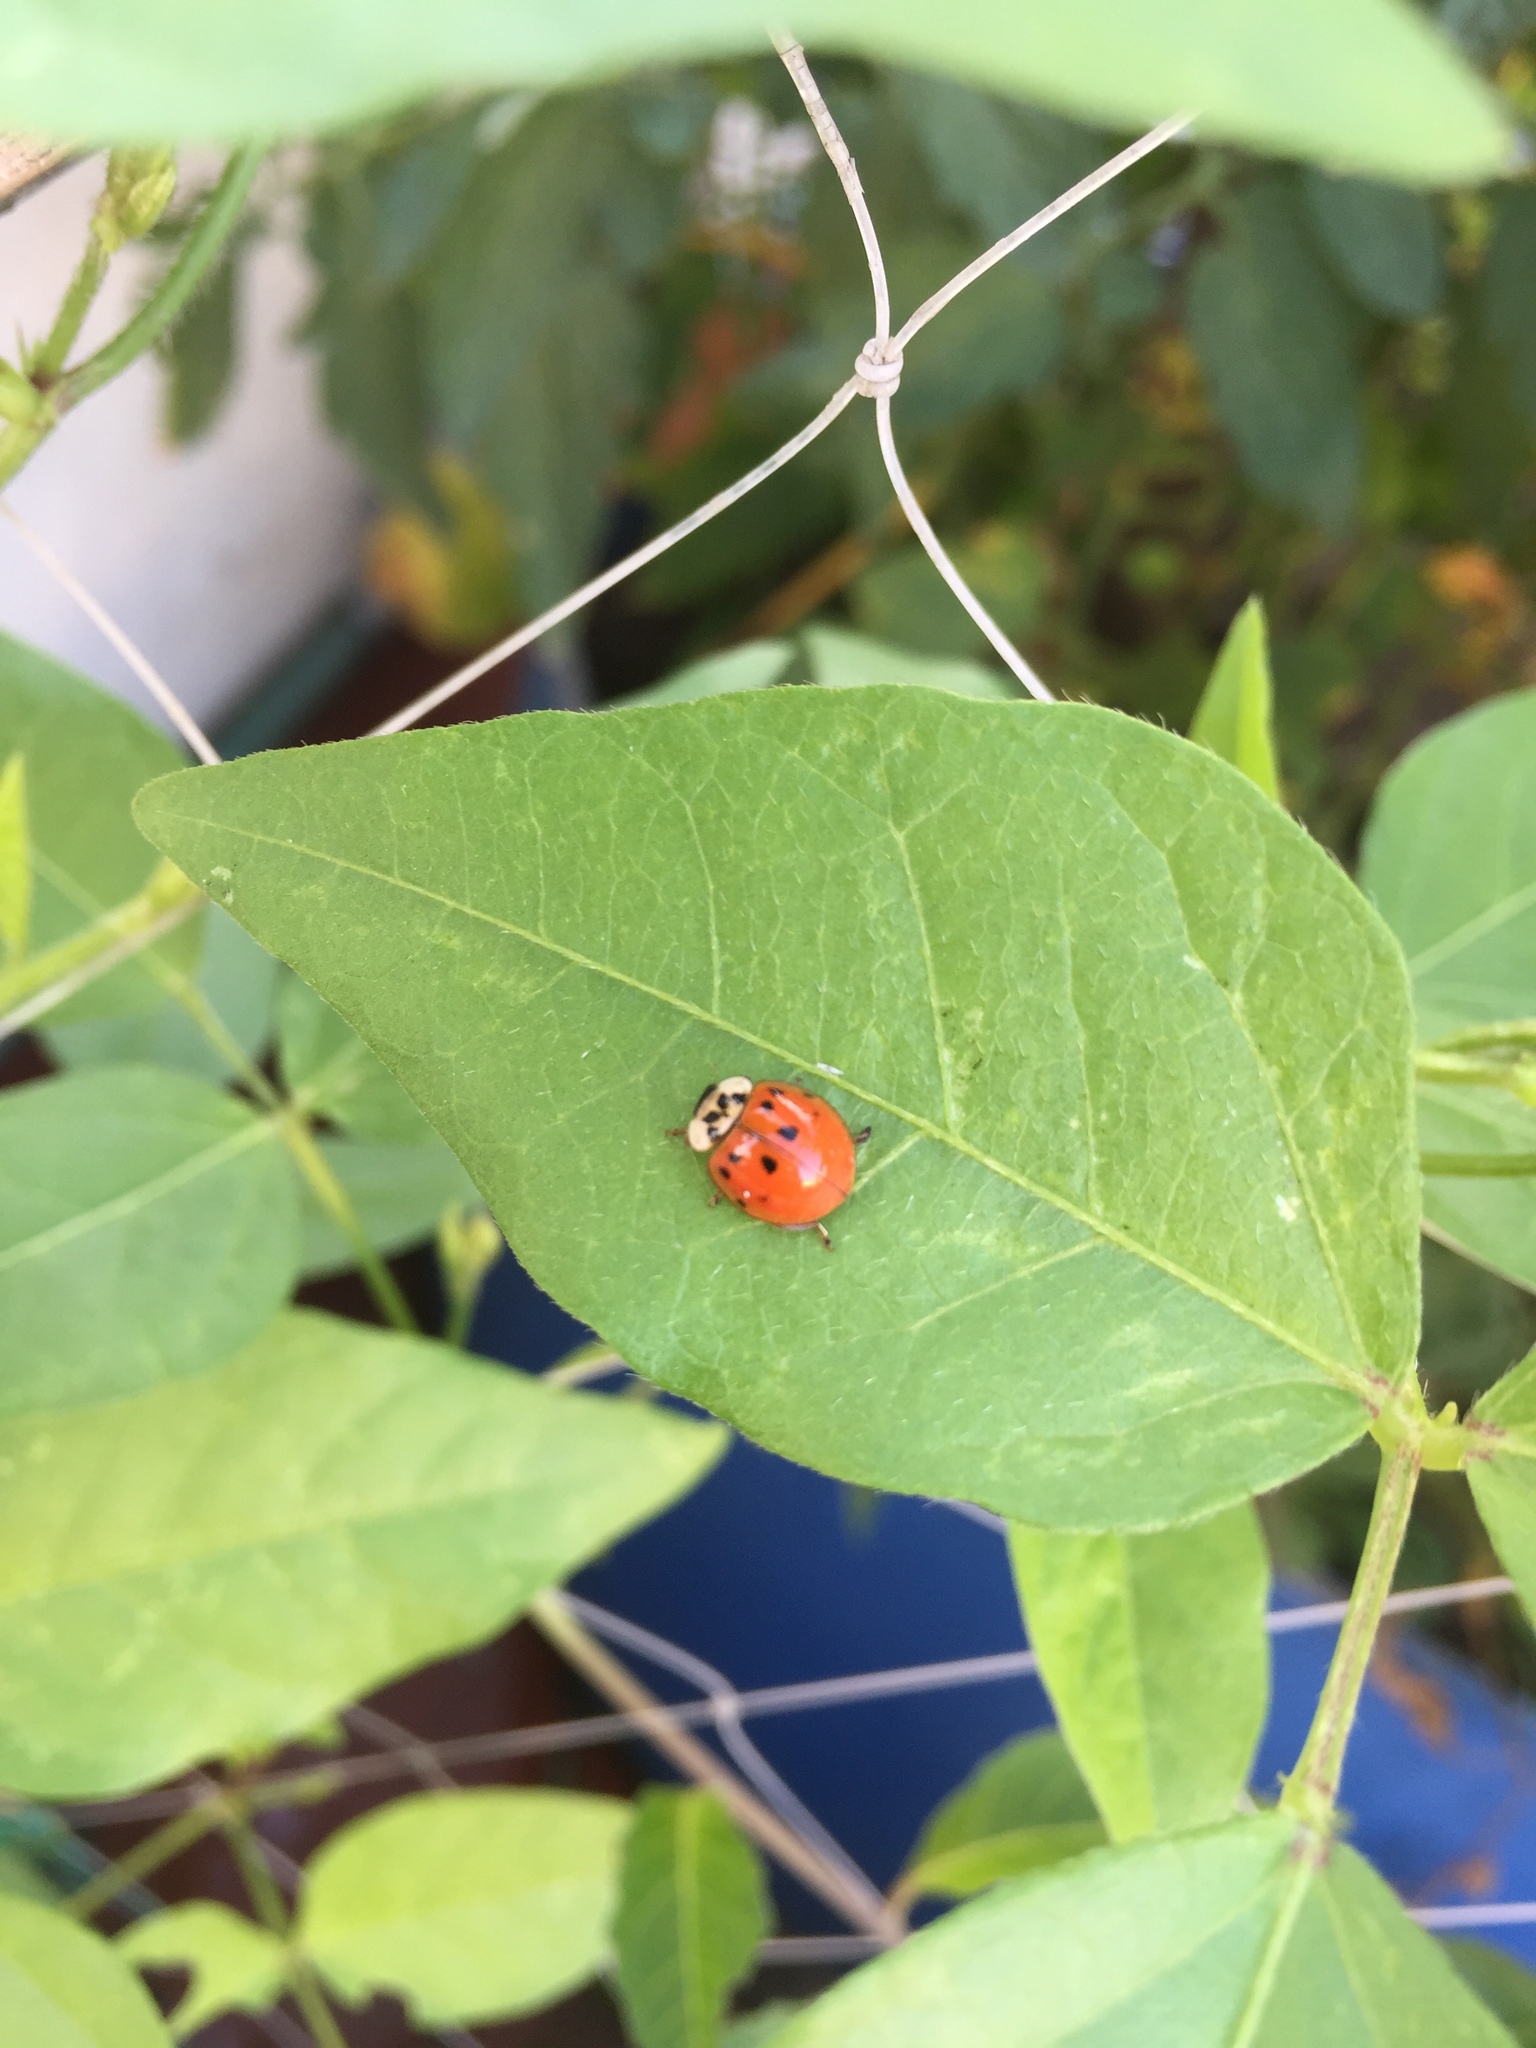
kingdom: Animalia
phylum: Arthropoda
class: Insecta
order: Coleoptera
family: Coccinellidae
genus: Harmonia
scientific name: Harmonia axyridis
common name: Harlequin ladybird
